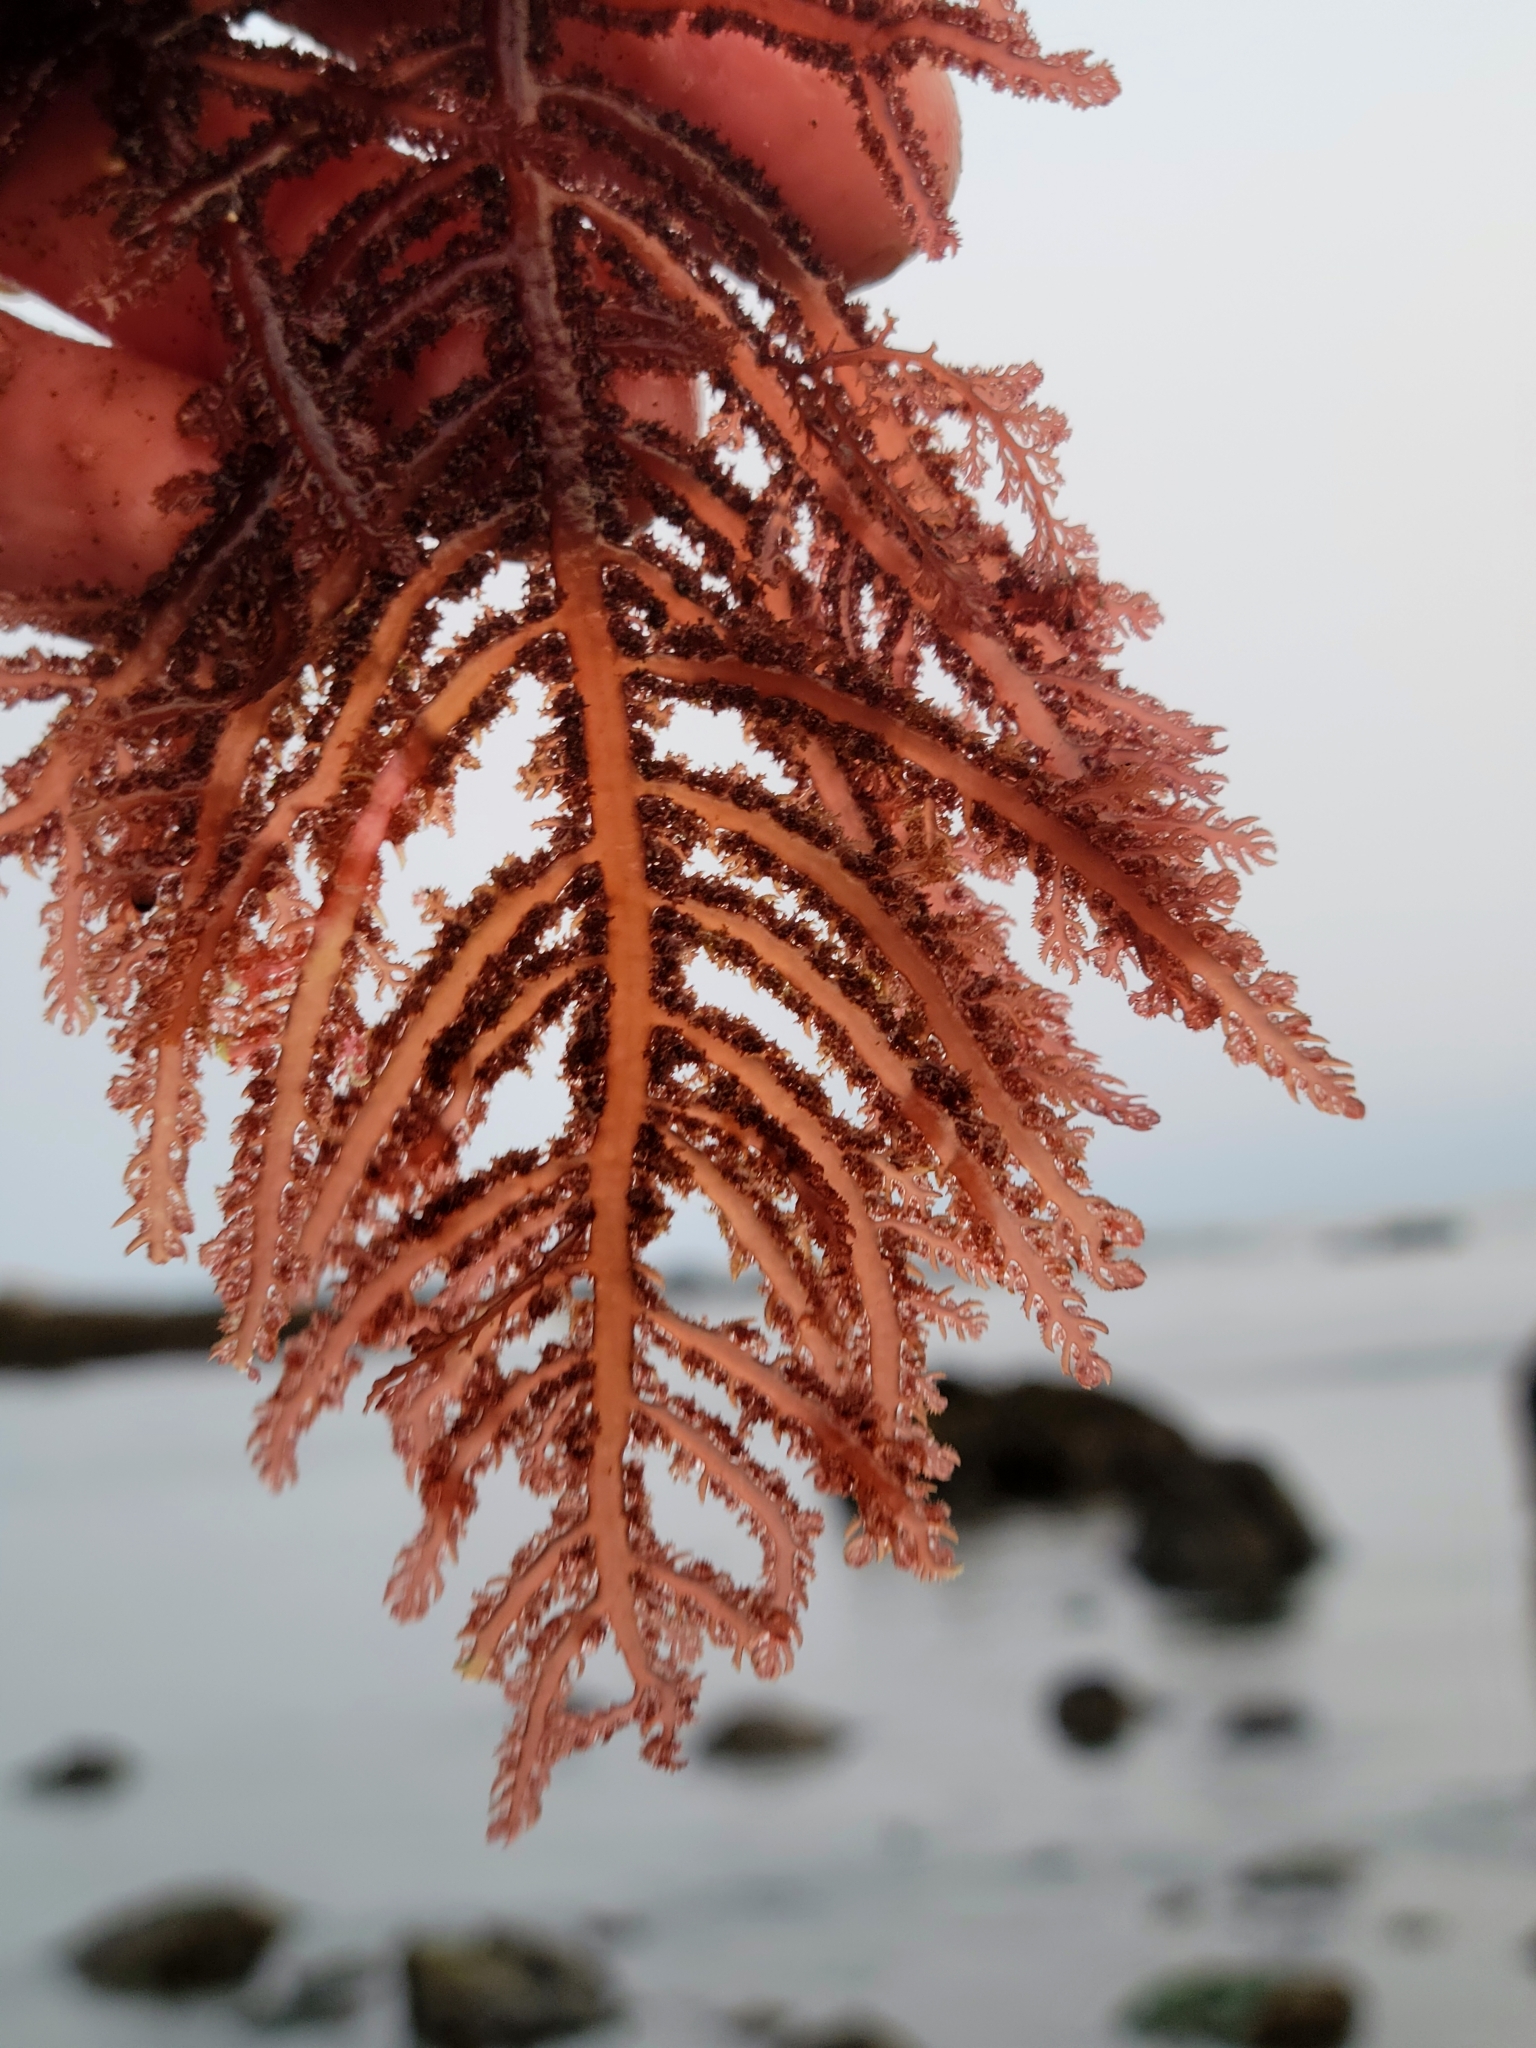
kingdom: Plantae
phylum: Rhodophyta
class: Florideophyceae
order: Ceramiales
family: Wrangeliaceae
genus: Neoptilota
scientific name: Neoptilota densa
